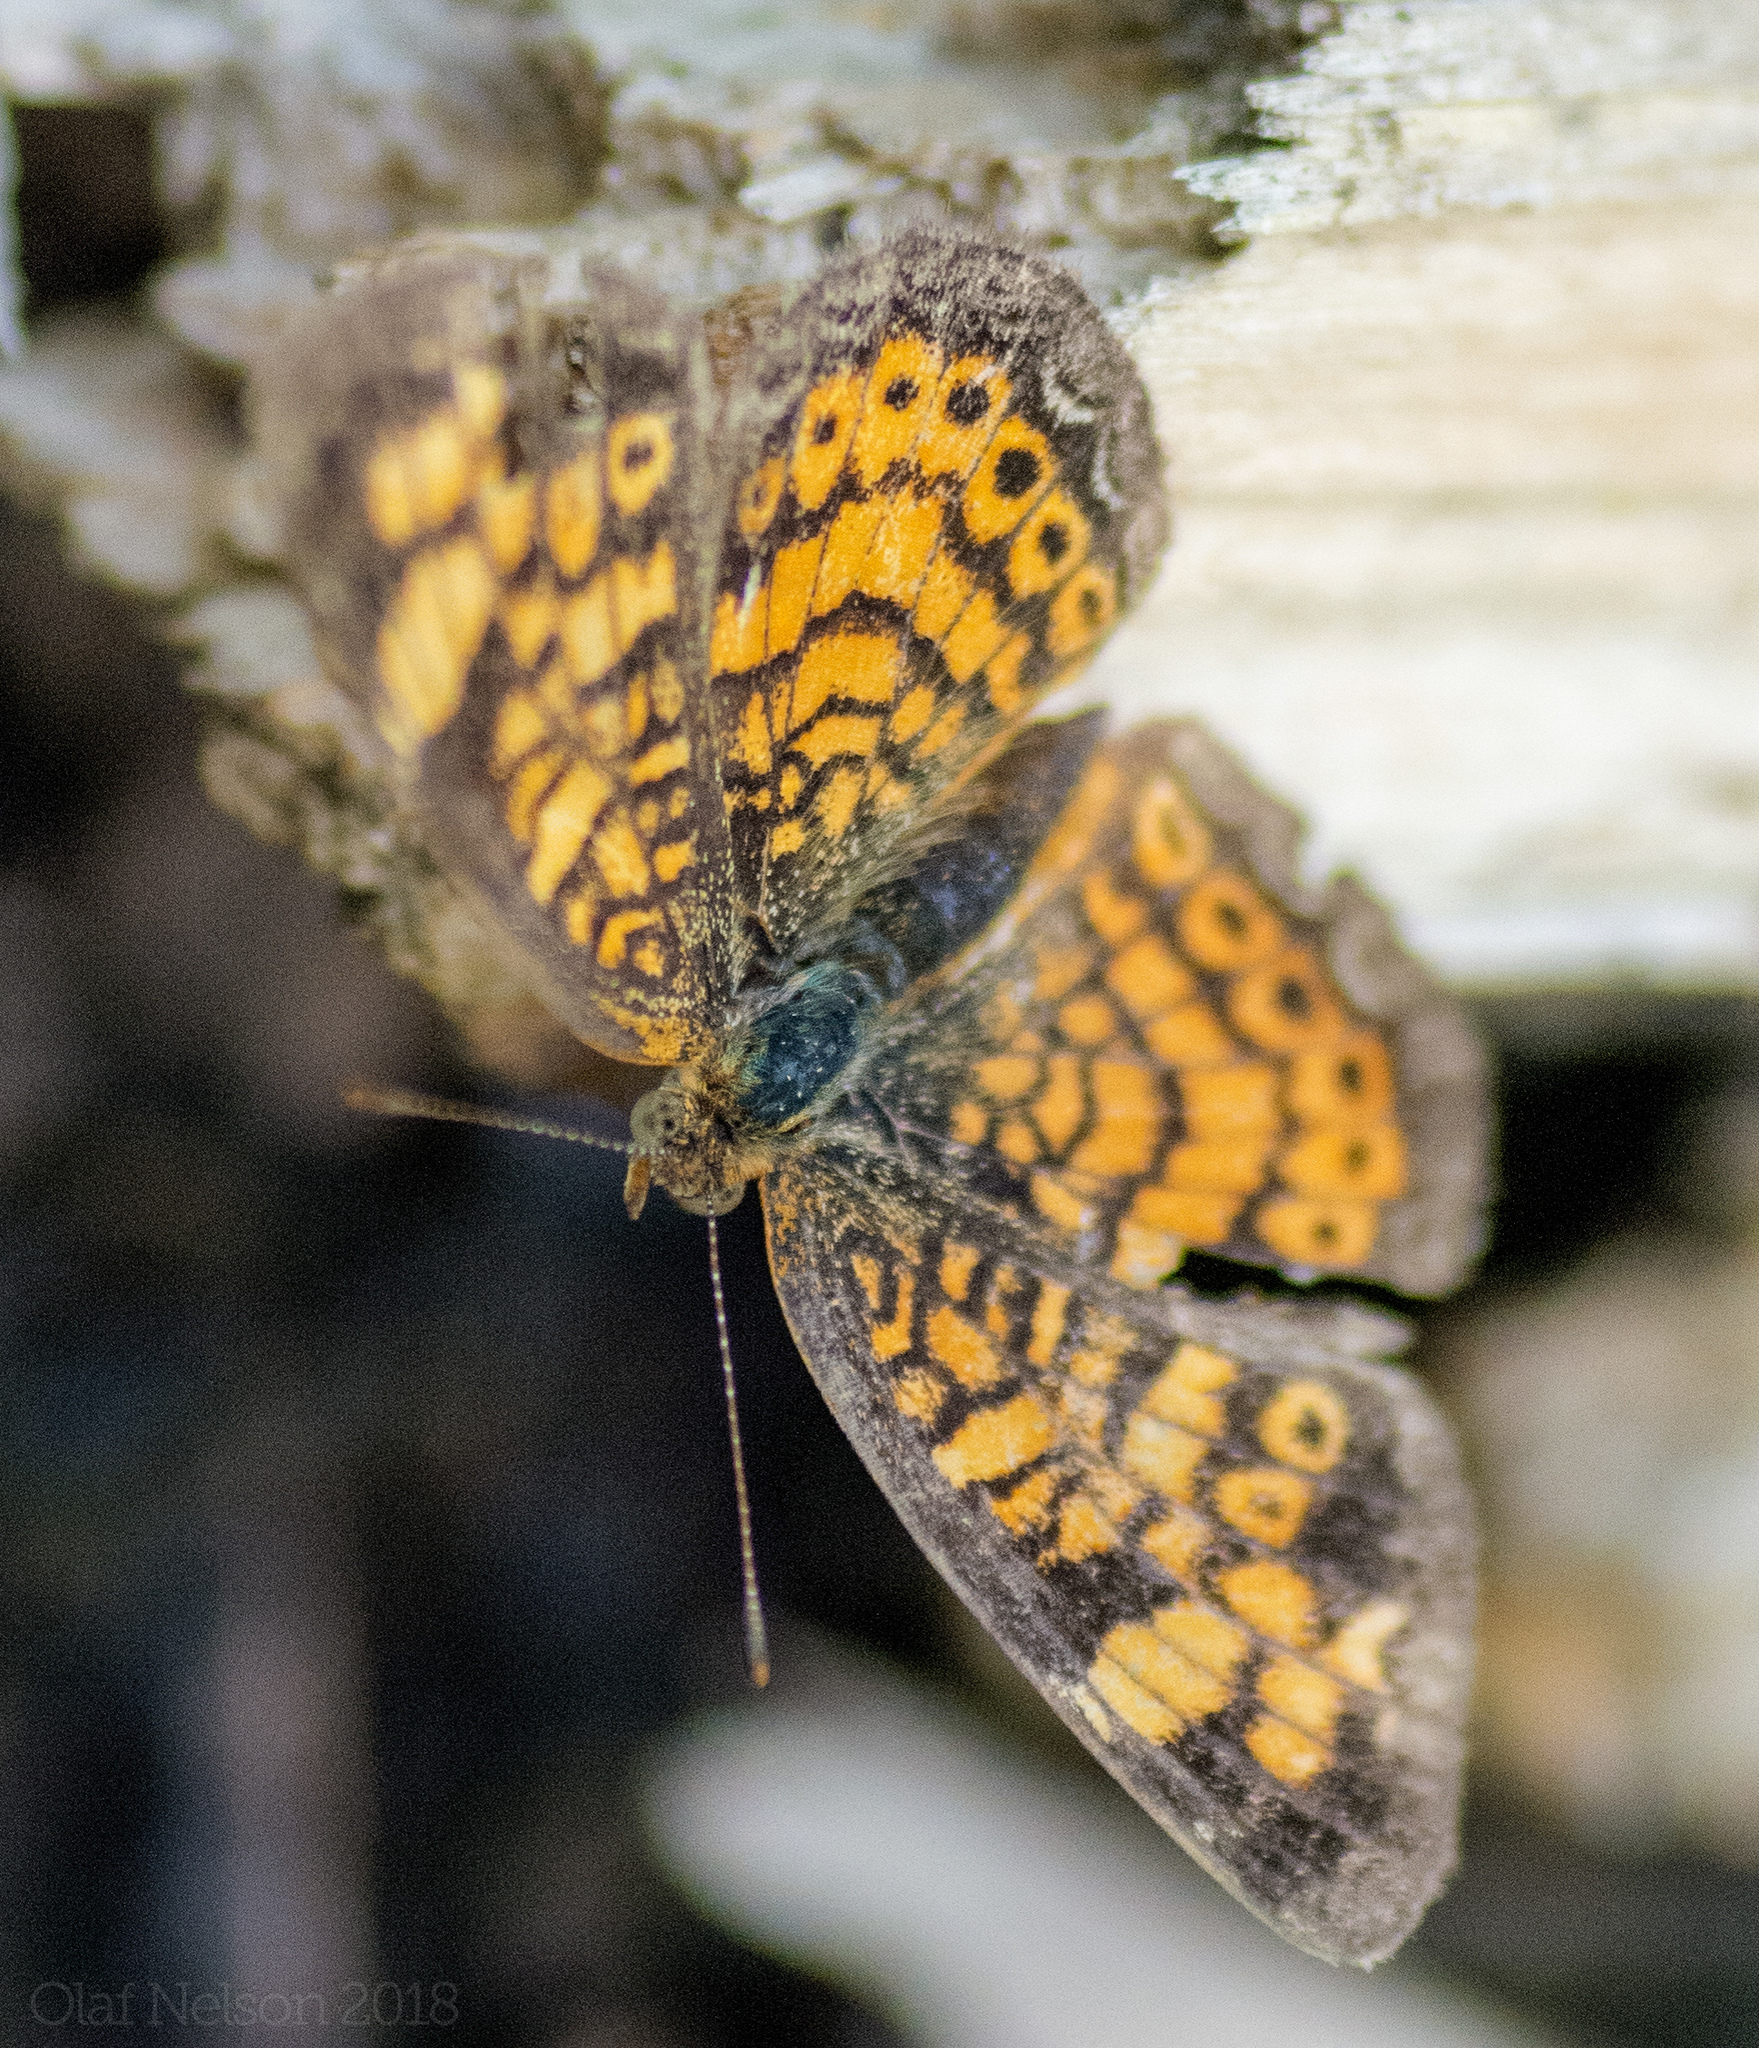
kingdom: Animalia
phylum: Arthropoda
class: Insecta
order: Lepidoptera
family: Nymphalidae
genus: Phyciodes
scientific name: Phyciodes tharos
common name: Pearl crescent
